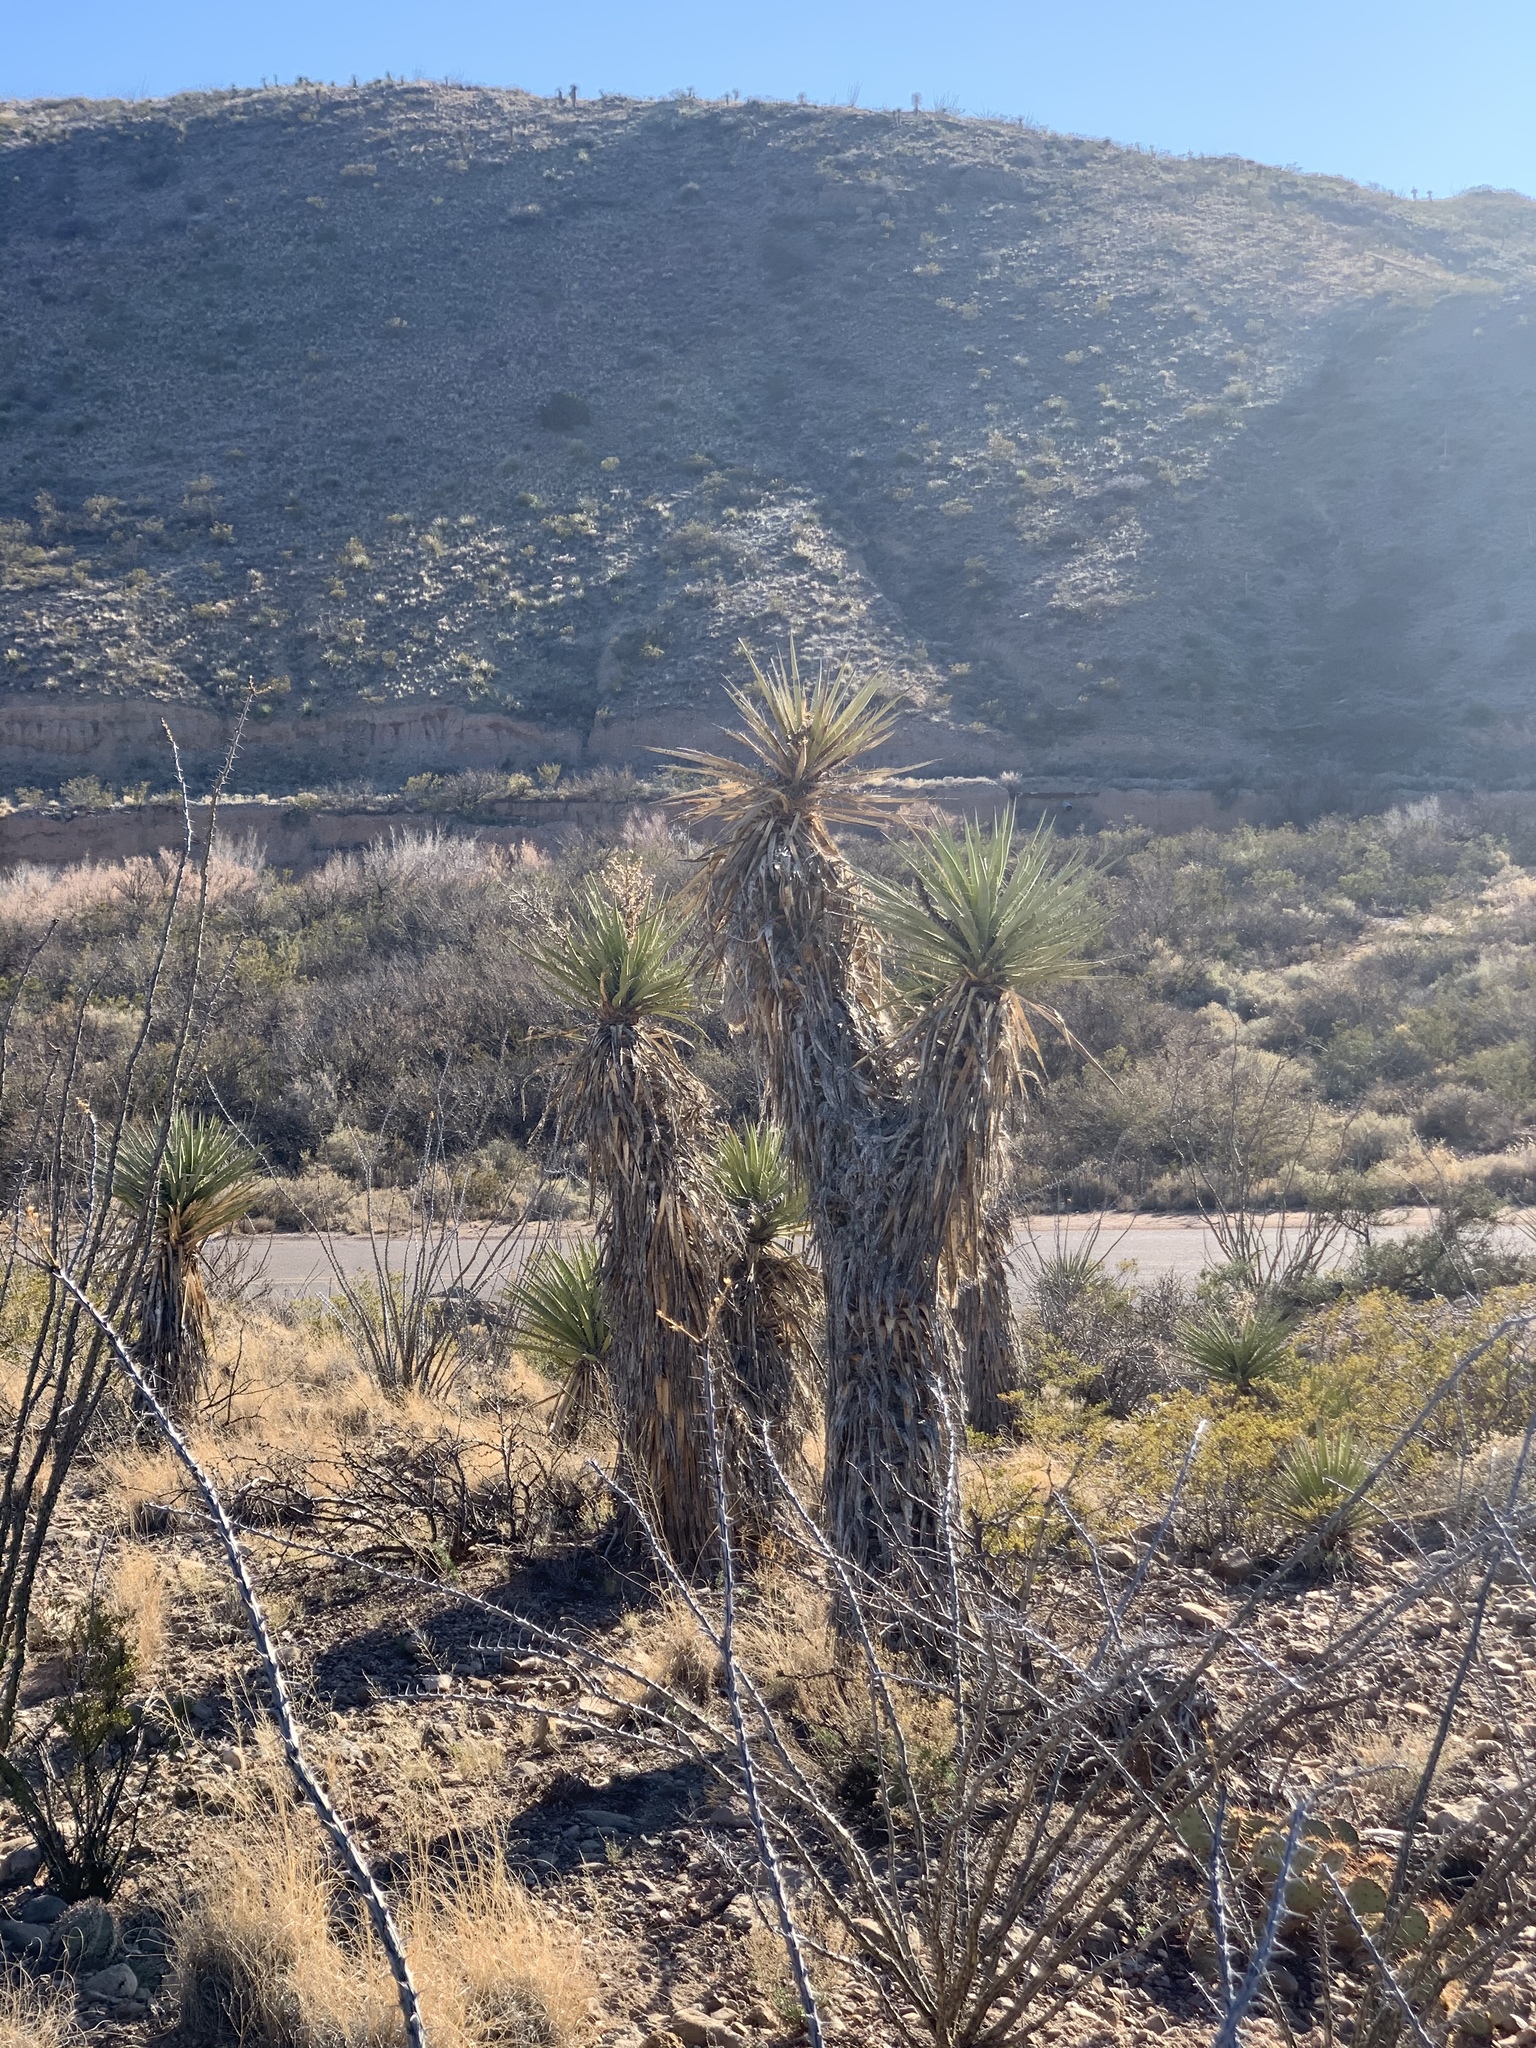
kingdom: Plantae
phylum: Tracheophyta
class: Liliopsida
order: Asparagales
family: Asparagaceae
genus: Yucca
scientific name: Yucca treculiana
